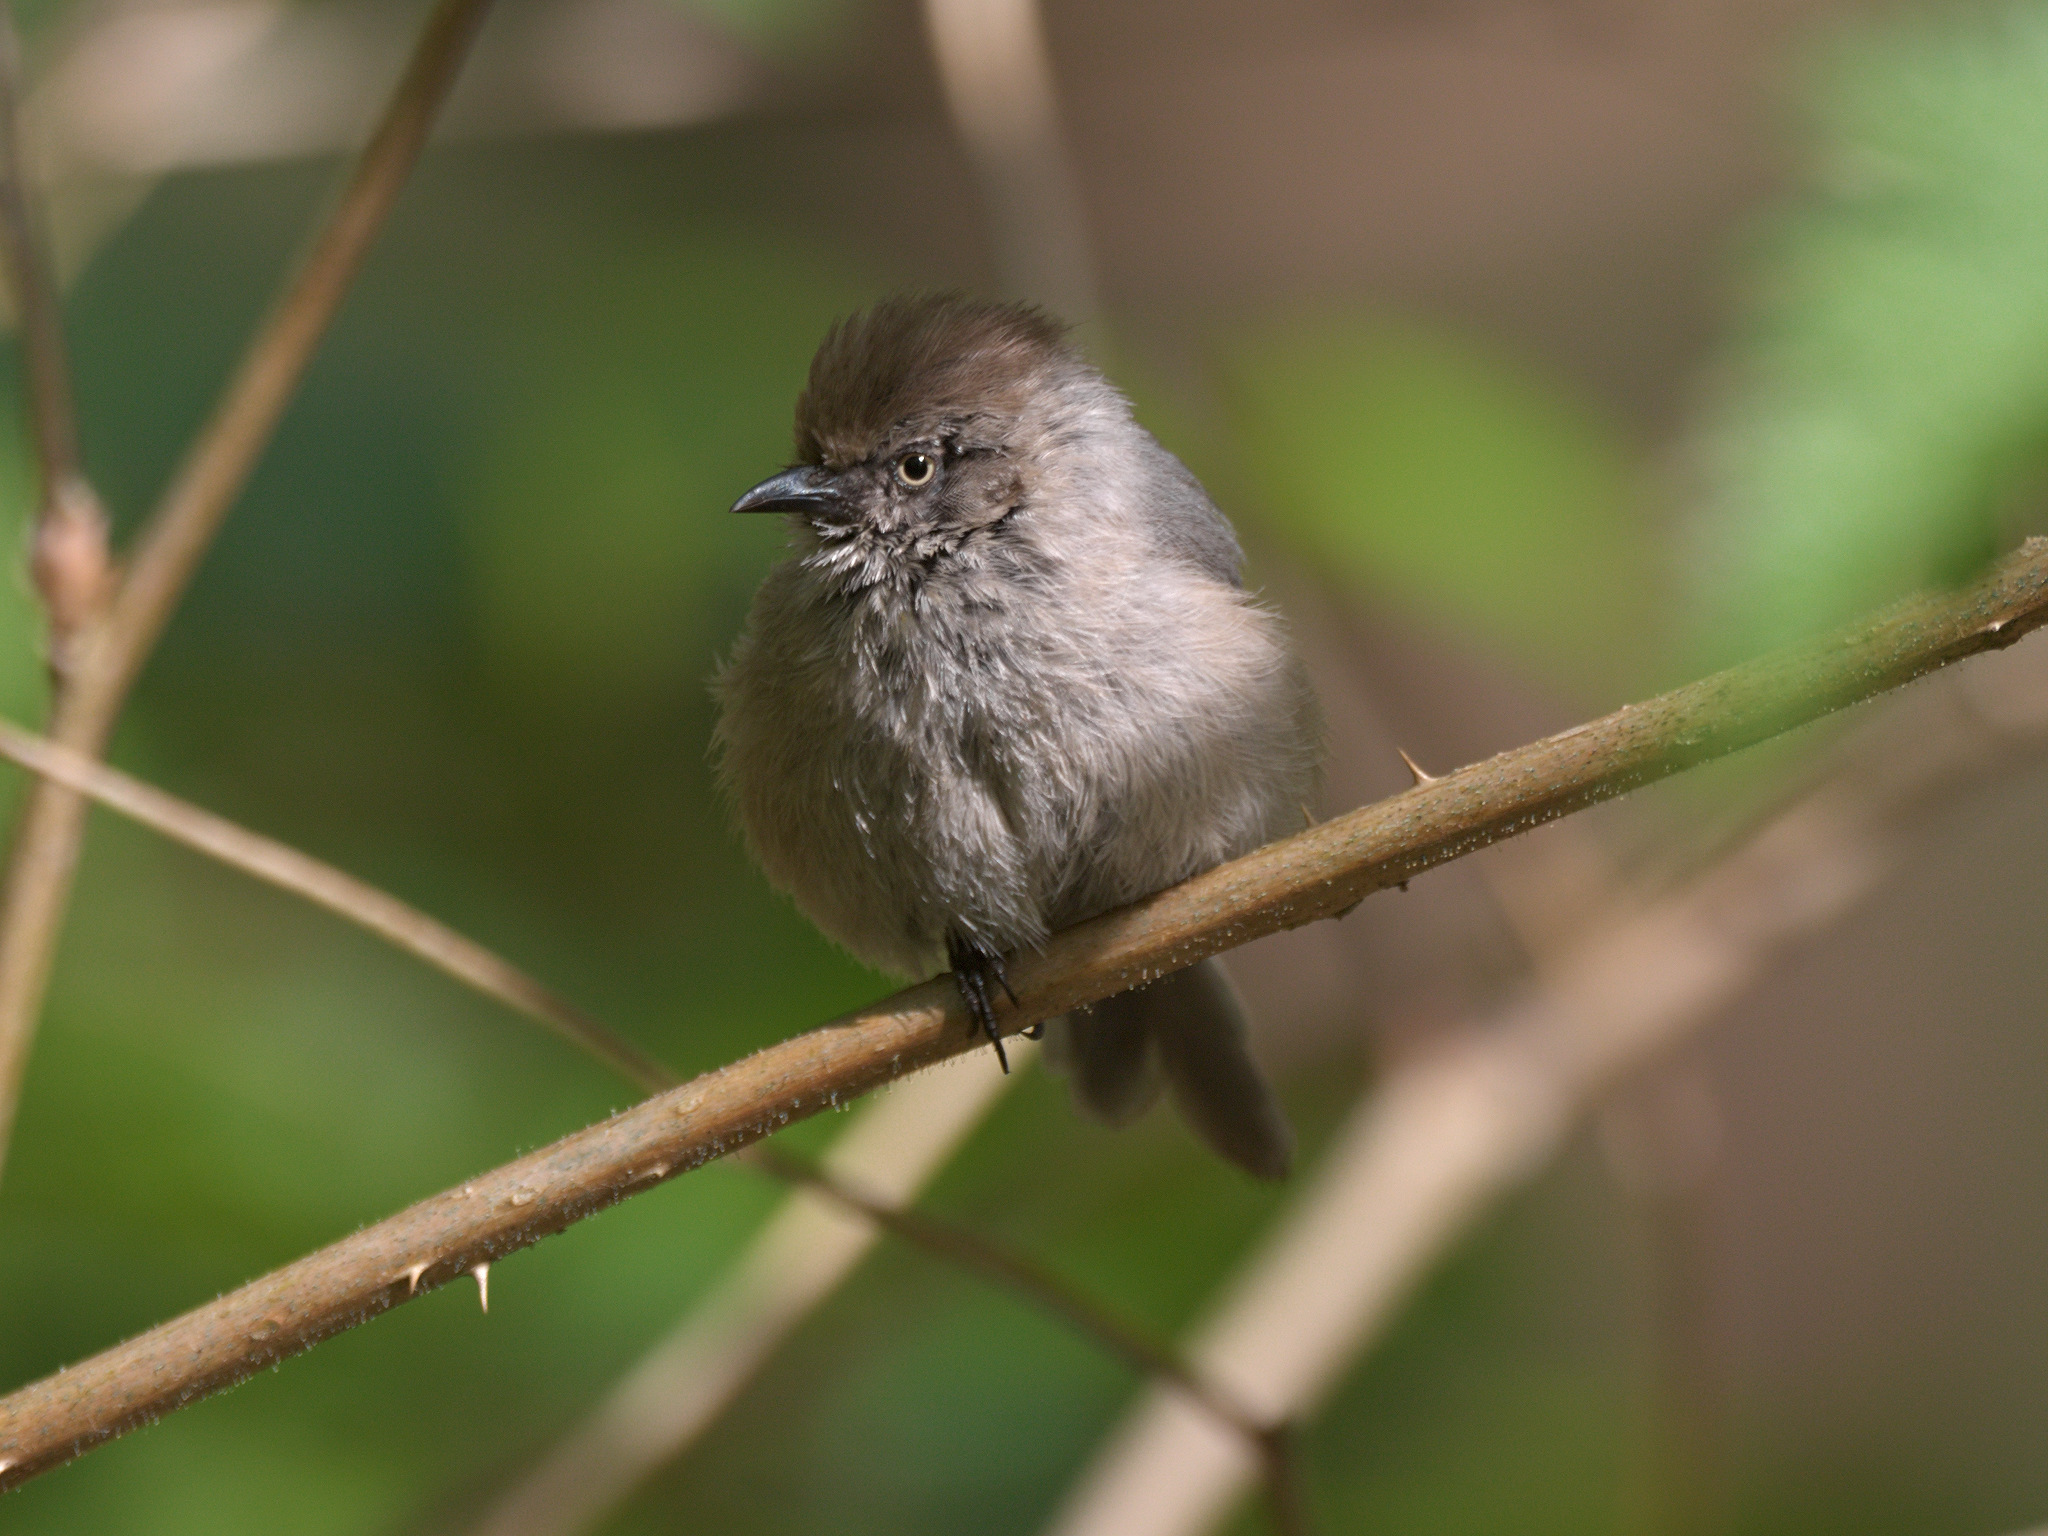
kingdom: Animalia
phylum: Chordata
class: Aves
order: Passeriformes
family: Aegithalidae
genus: Psaltriparus
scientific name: Psaltriparus minimus
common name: American bushtit
